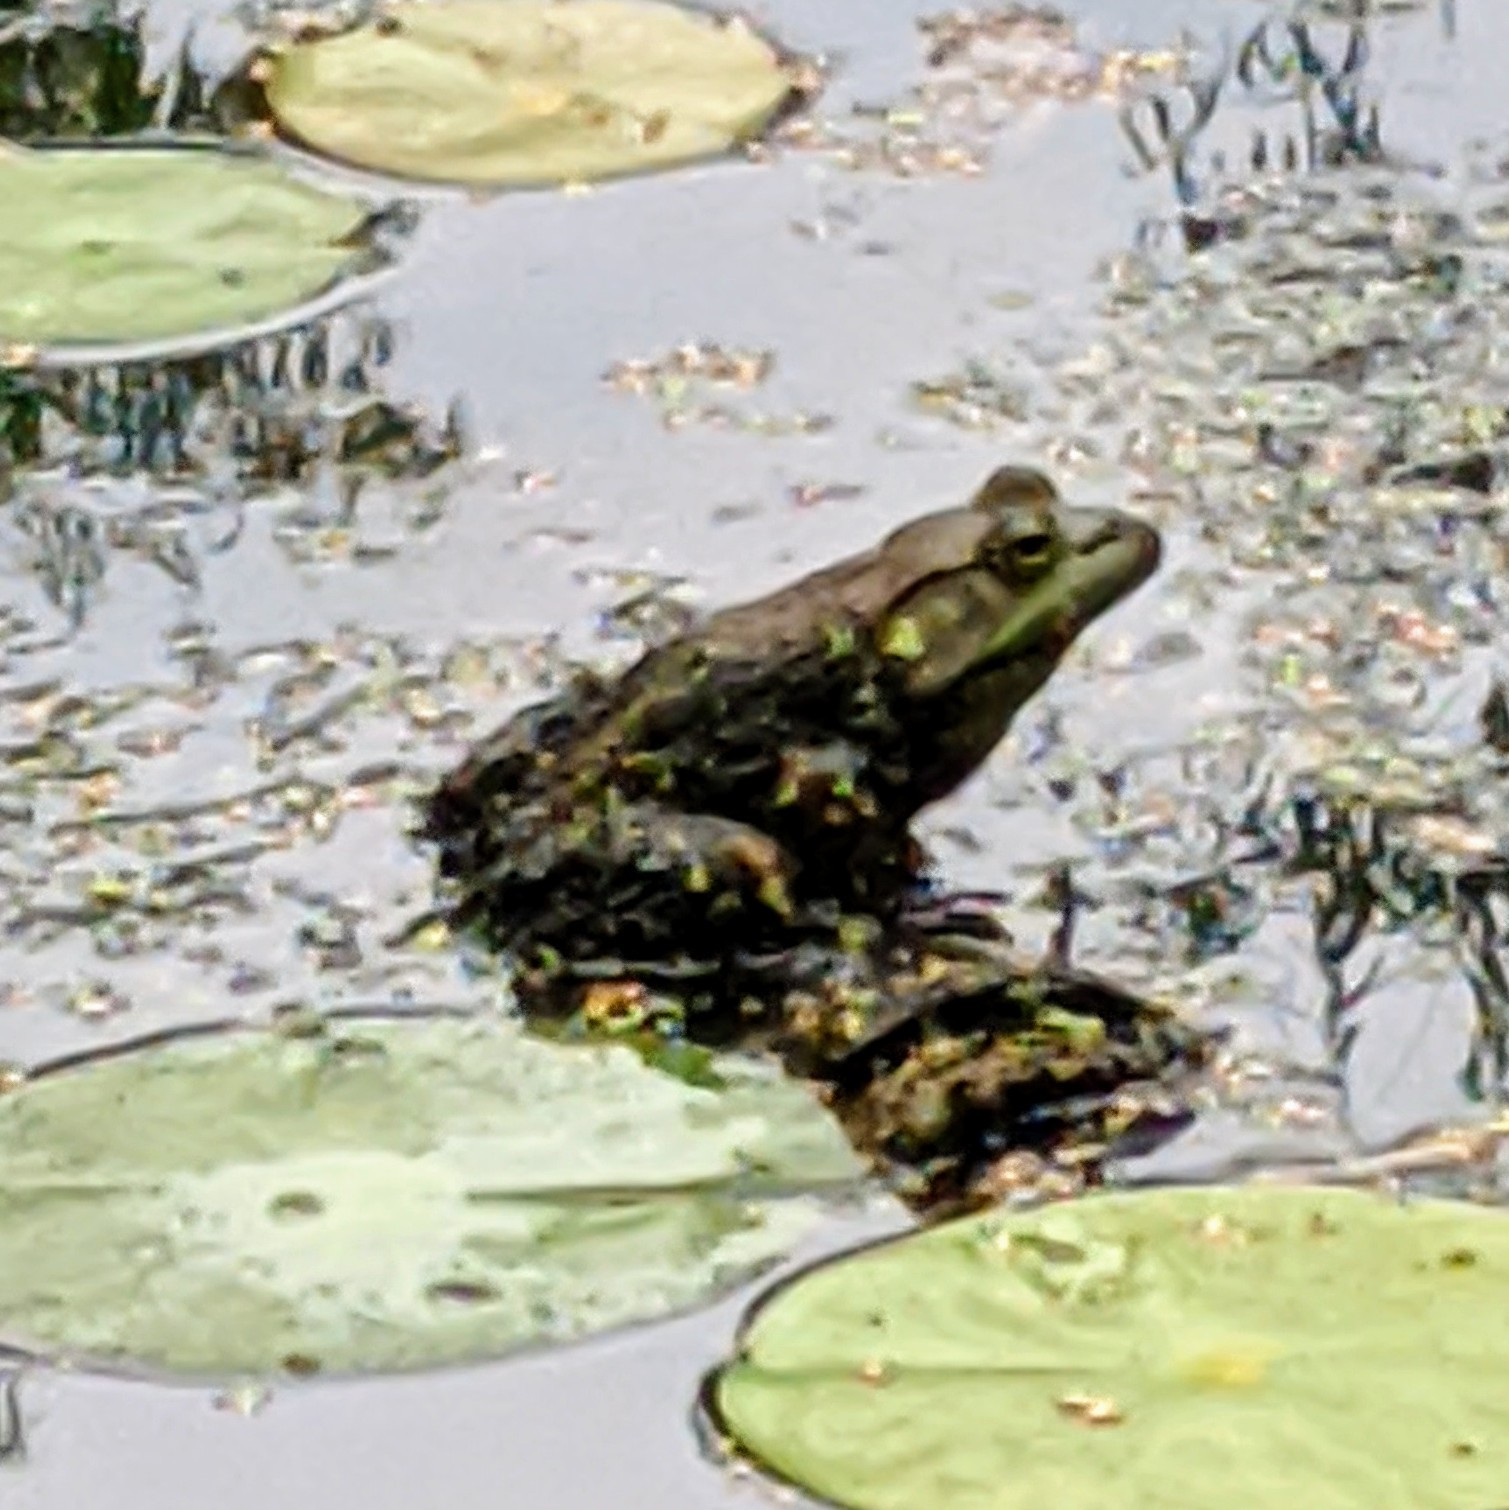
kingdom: Animalia
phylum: Chordata
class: Amphibia
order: Anura
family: Ranidae
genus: Lithobates
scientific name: Lithobates catesbeianus
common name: American bullfrog
